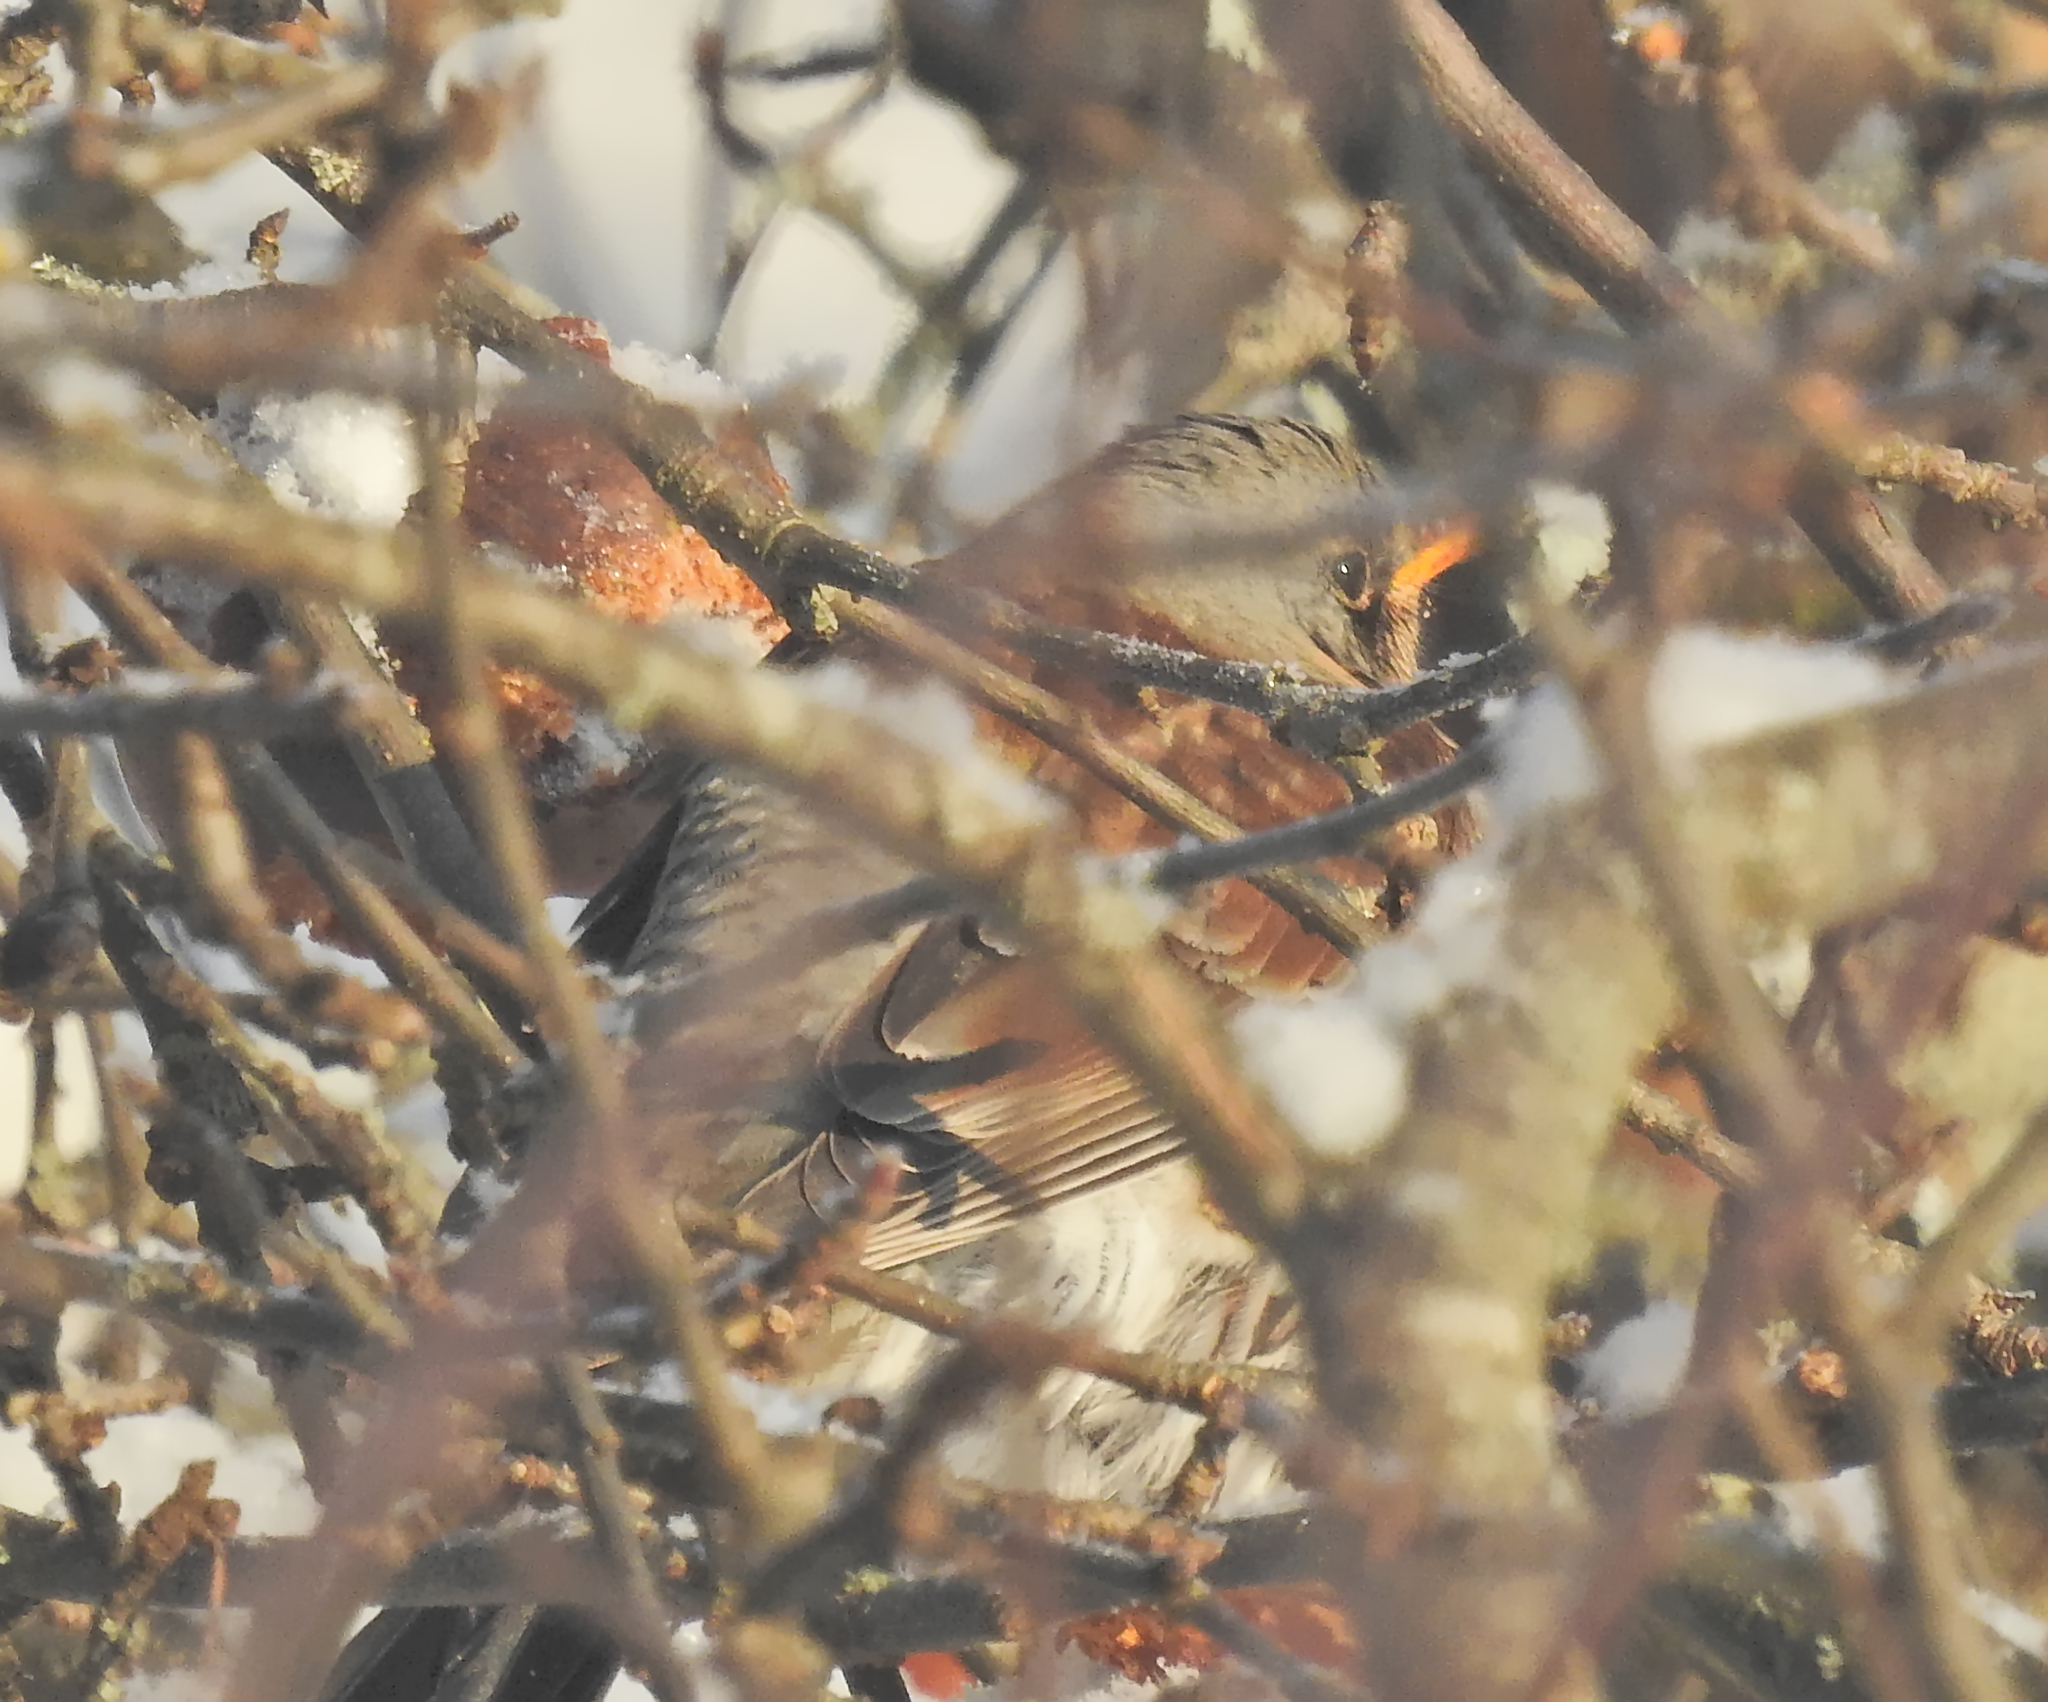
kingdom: Animalia
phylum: Chordata
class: Aves
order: Passeriformes
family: Turdidae
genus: Turdus
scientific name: Turdus pilaris
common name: Fieldfare
